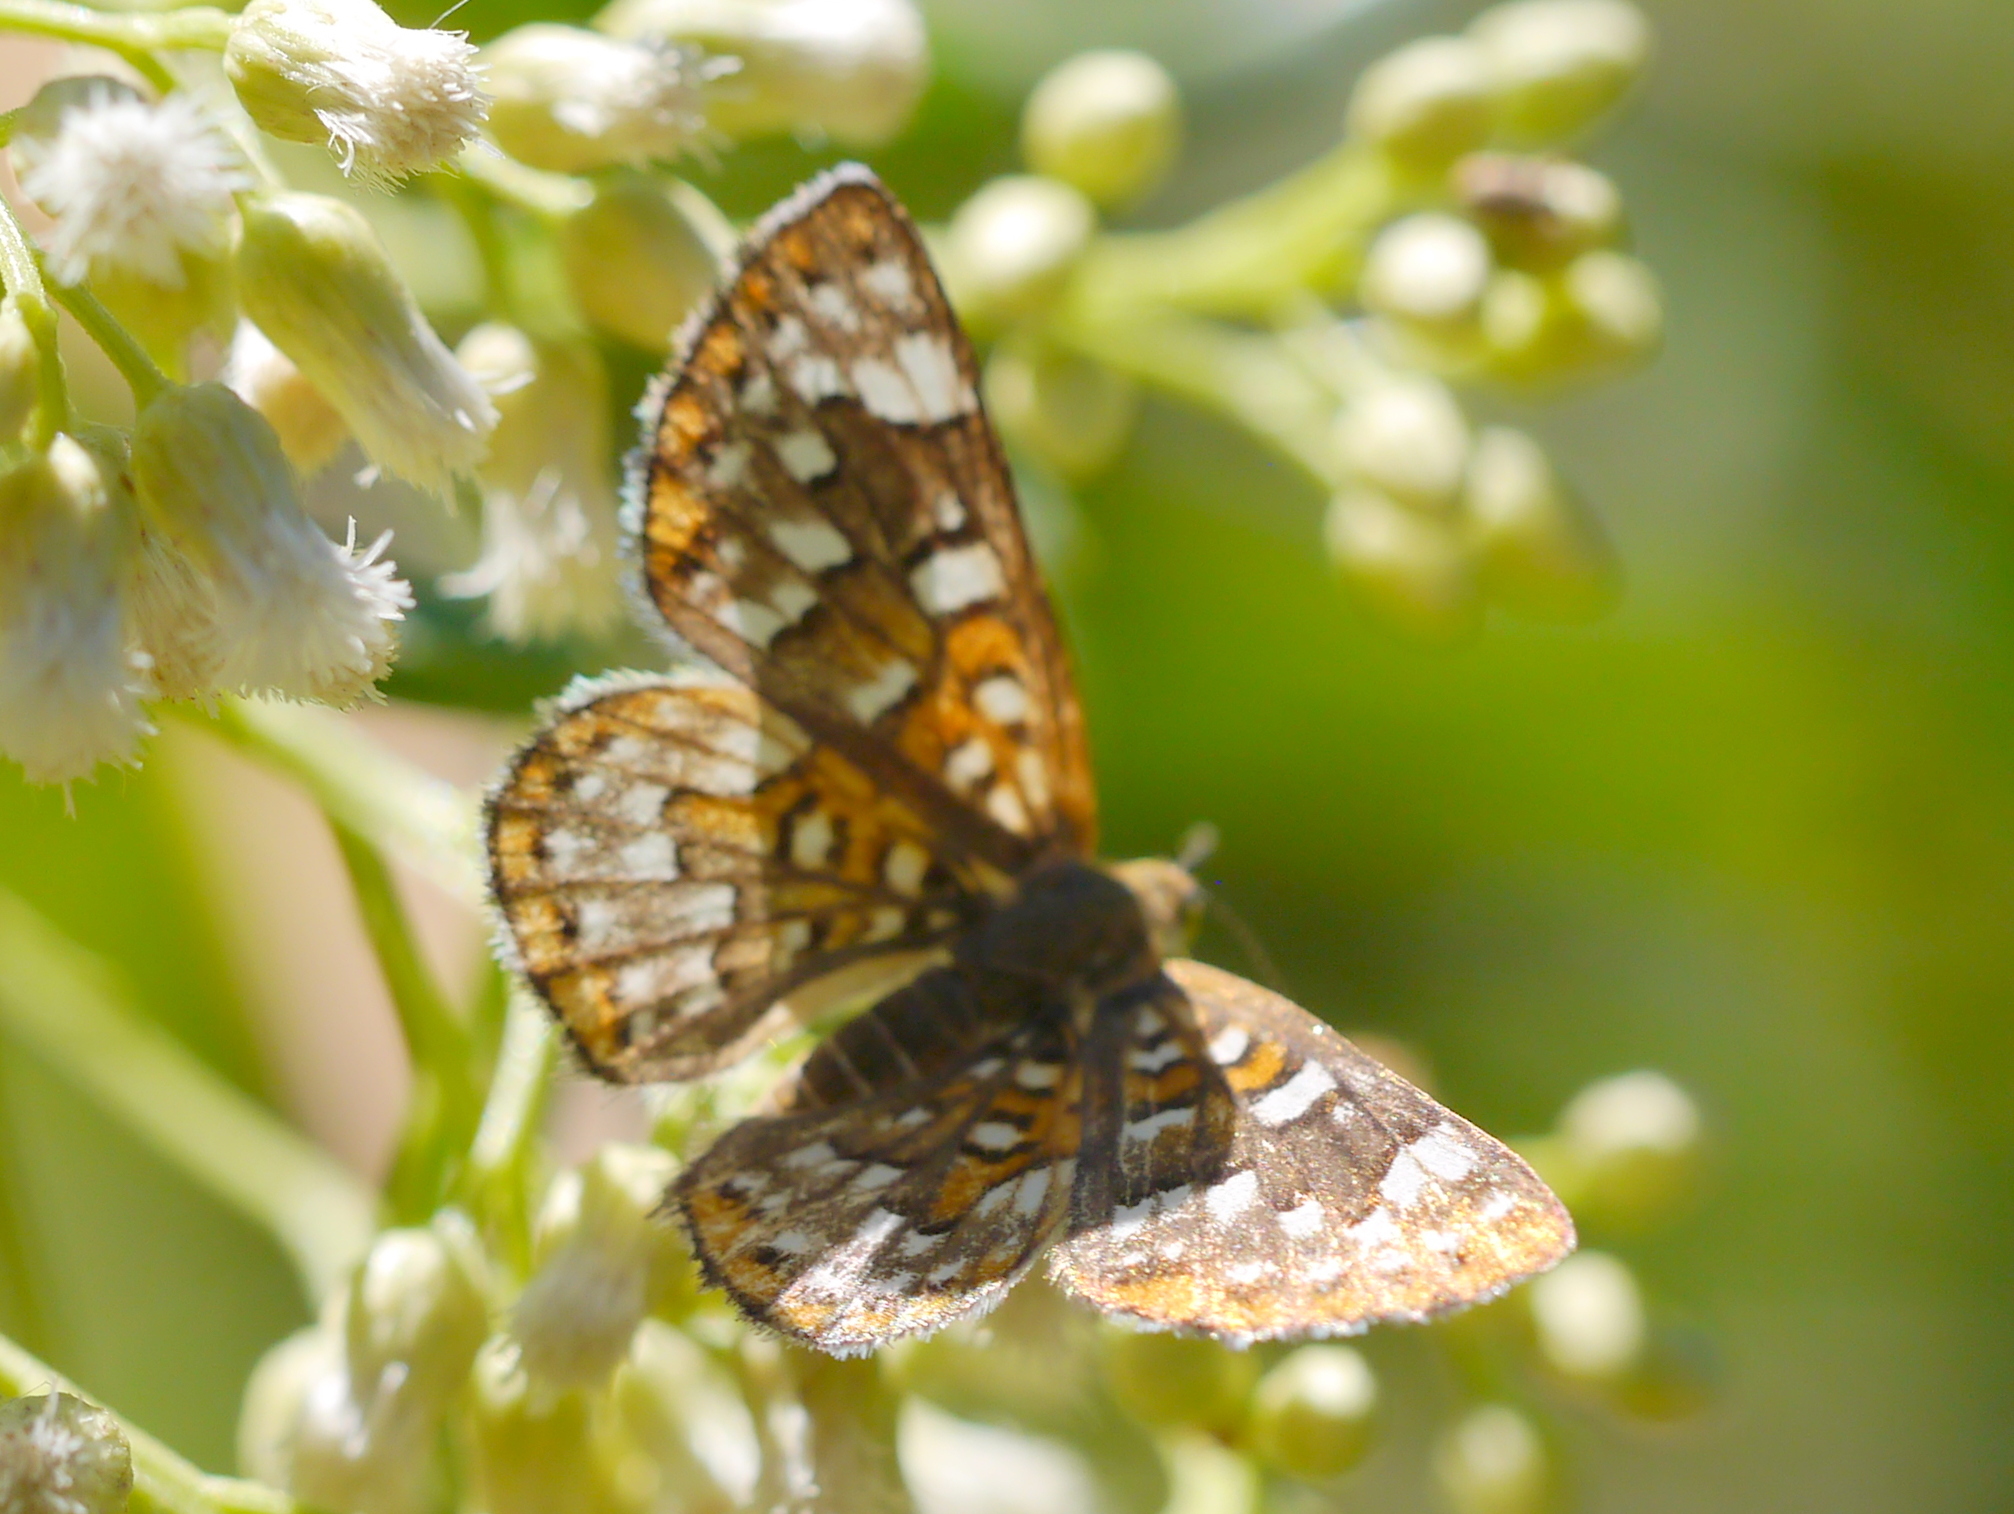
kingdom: Animalia
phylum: Arthropoda
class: Insecta
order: Lepidoptera
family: Riodinidae
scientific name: Riodinidae
